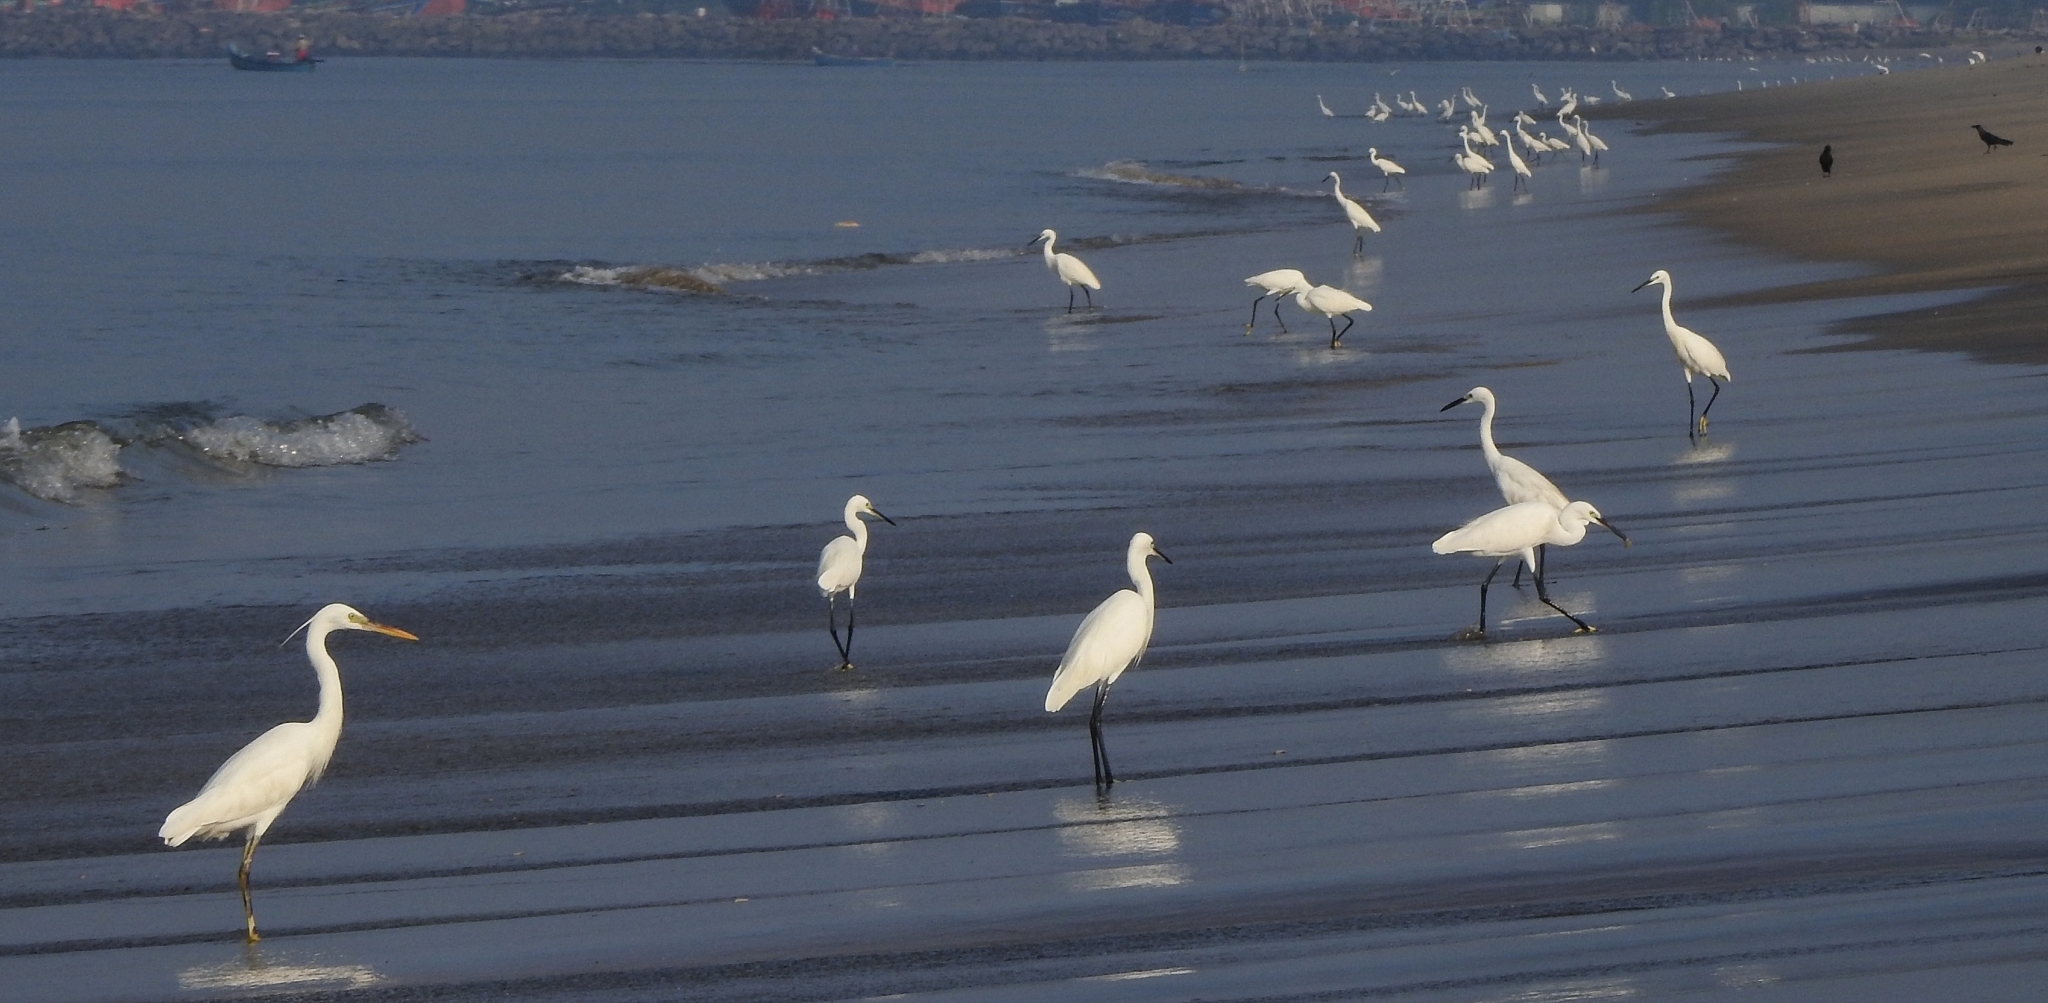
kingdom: Animalia
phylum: Chordata
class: Aves
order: Pelecaniformes
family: Ardeidae
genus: Egretta
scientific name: Egretta garzetta
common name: Little egret
